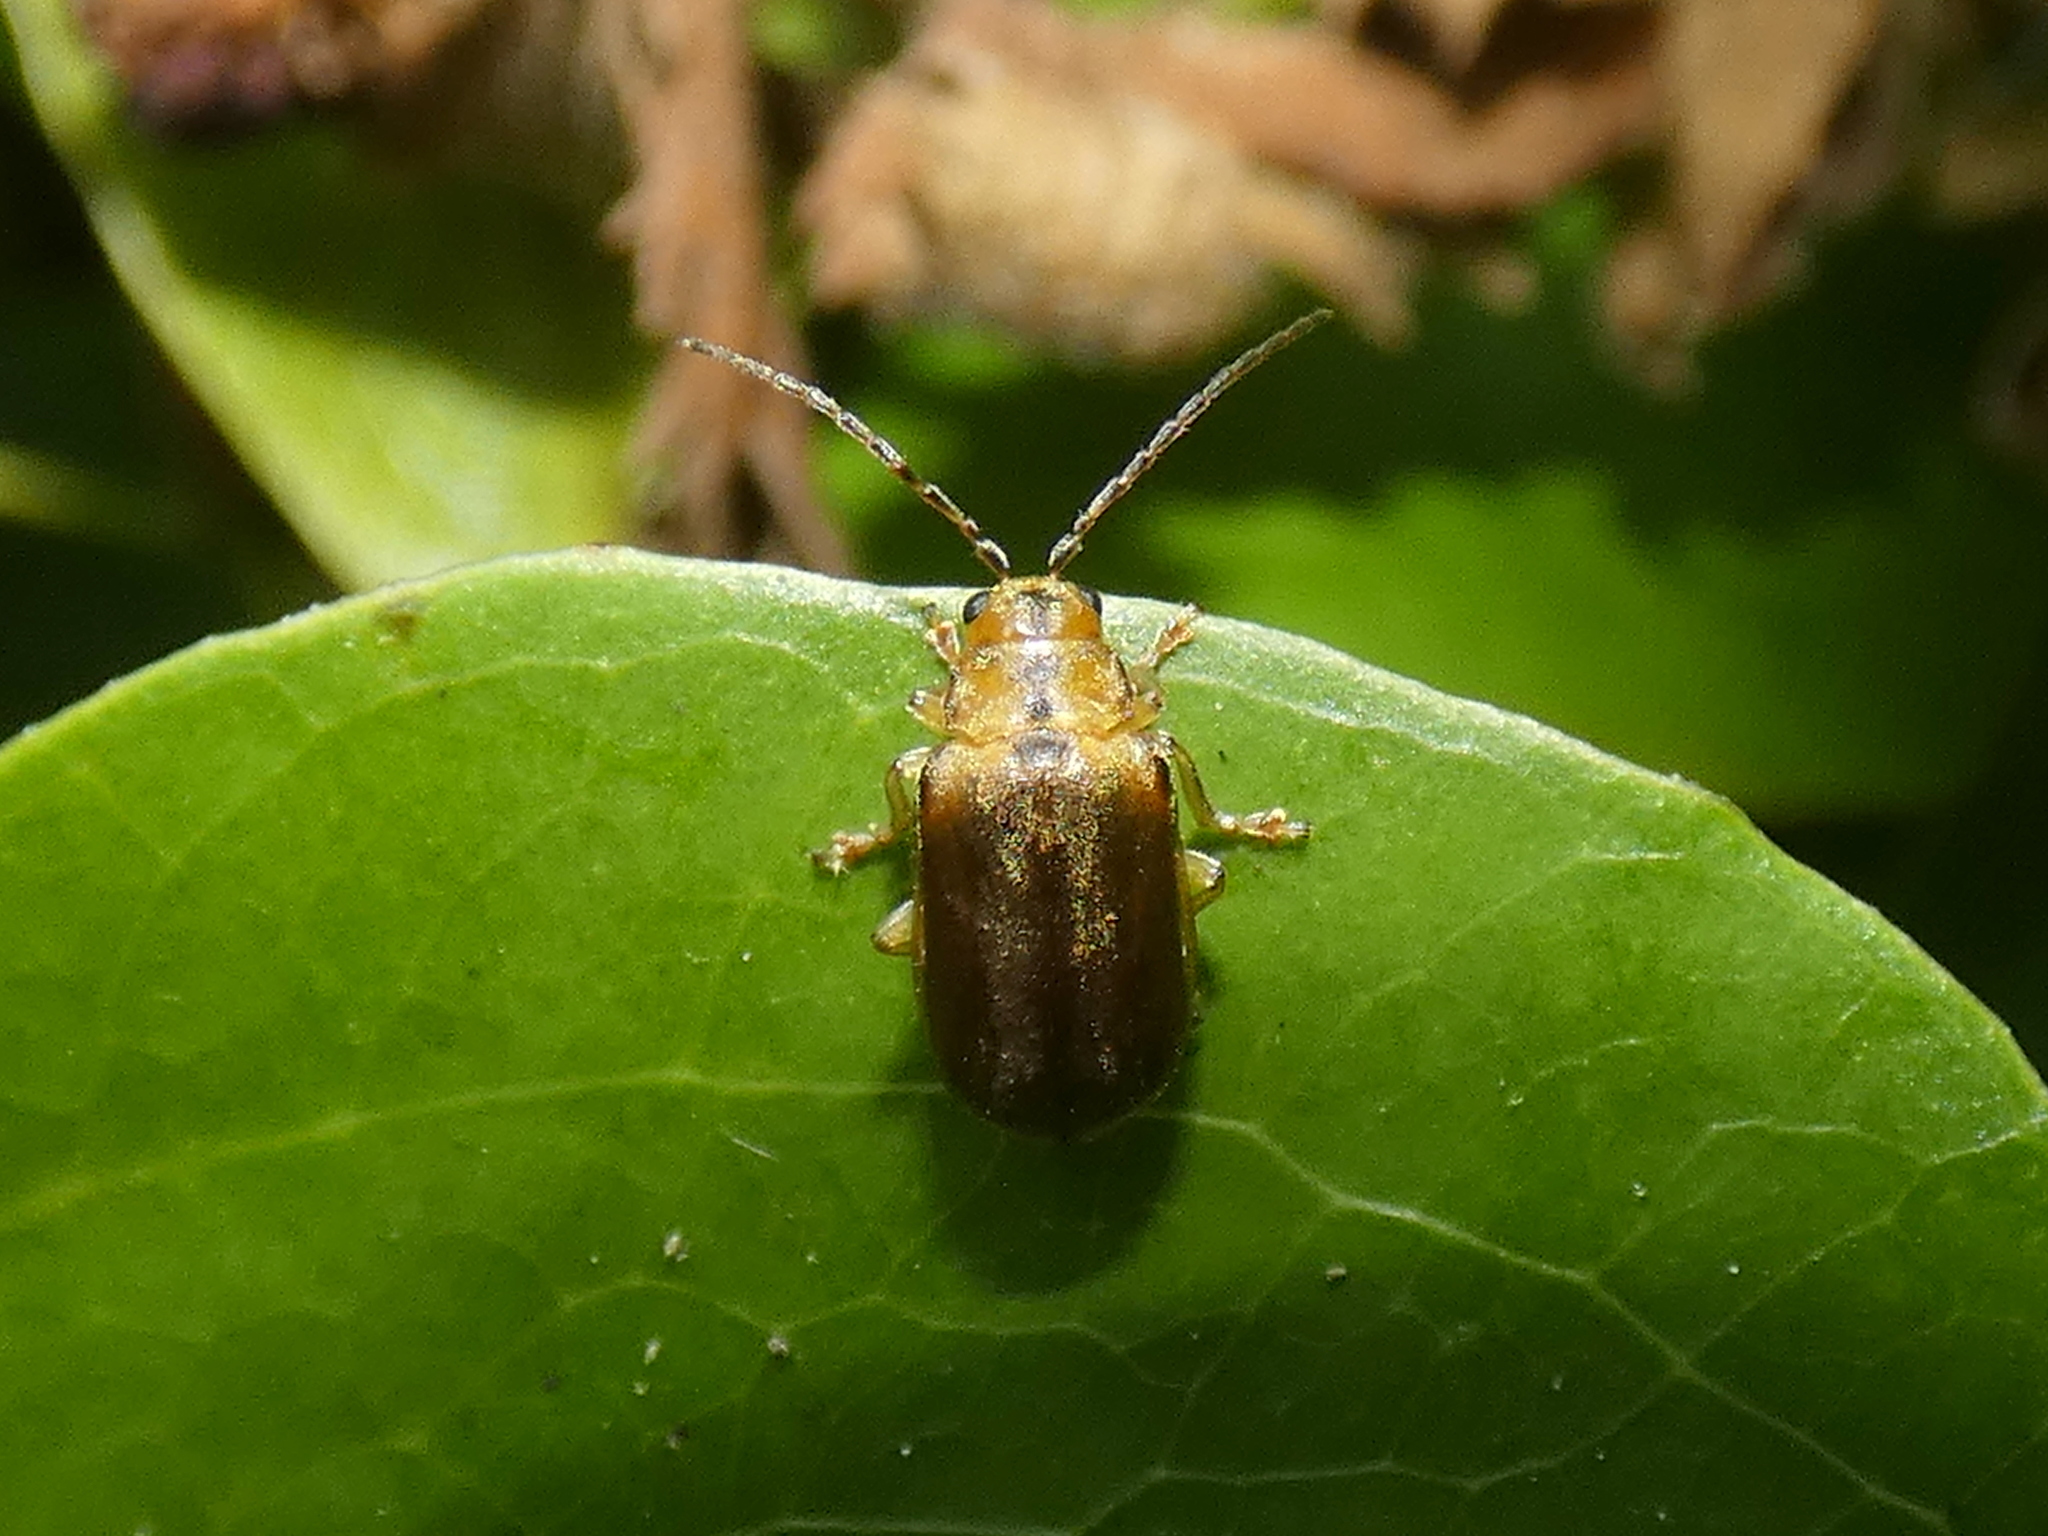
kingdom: Animalia
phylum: Arthropoda
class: Insecta
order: Coleoptera
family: Chrysomelidae
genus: Pyrrhalta
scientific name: Pyrrhalta viburni
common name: Guelder-rose leaf beetle
